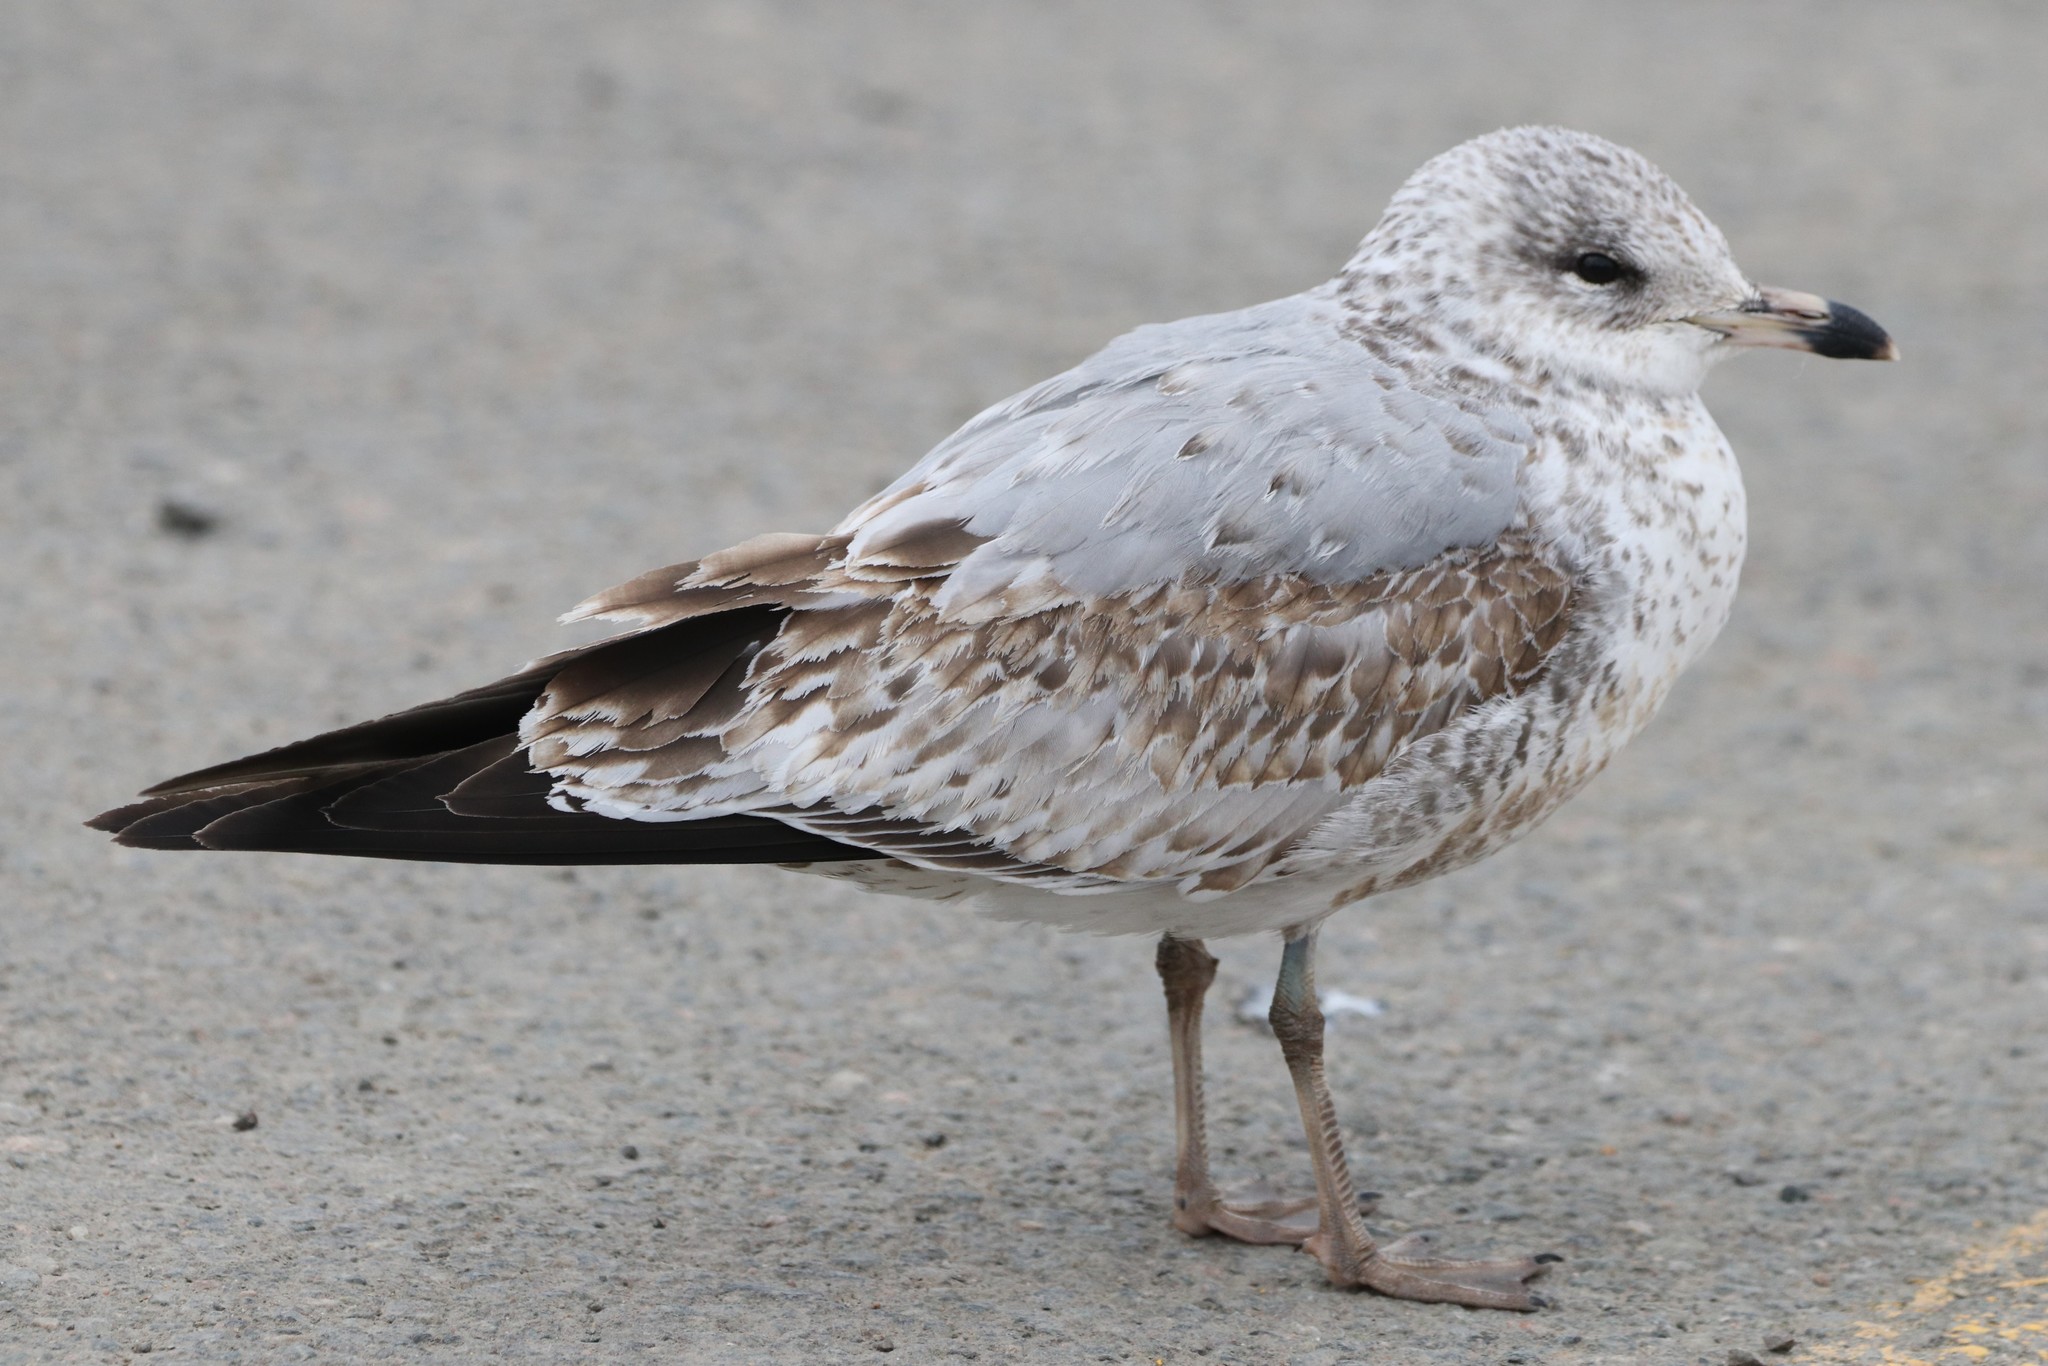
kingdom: Animalia
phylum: Chordata
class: Aves
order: Charadriiformes
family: Laridae
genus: Larus
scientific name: Larus delawarensis
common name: Ring-billed gull
